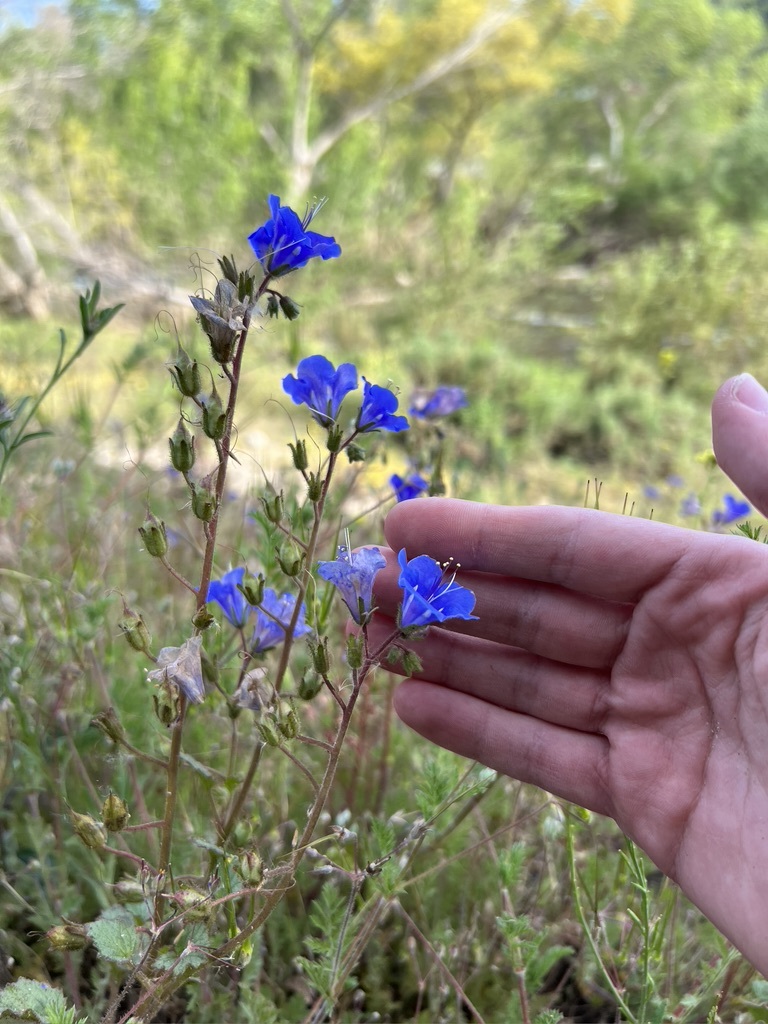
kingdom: Plantae
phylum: Tracheophyta
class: Magnoliopsida
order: Boraginales
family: Hydrophyllaceae
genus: Phacelia
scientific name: Phacelia campanularia
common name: California bluebell
